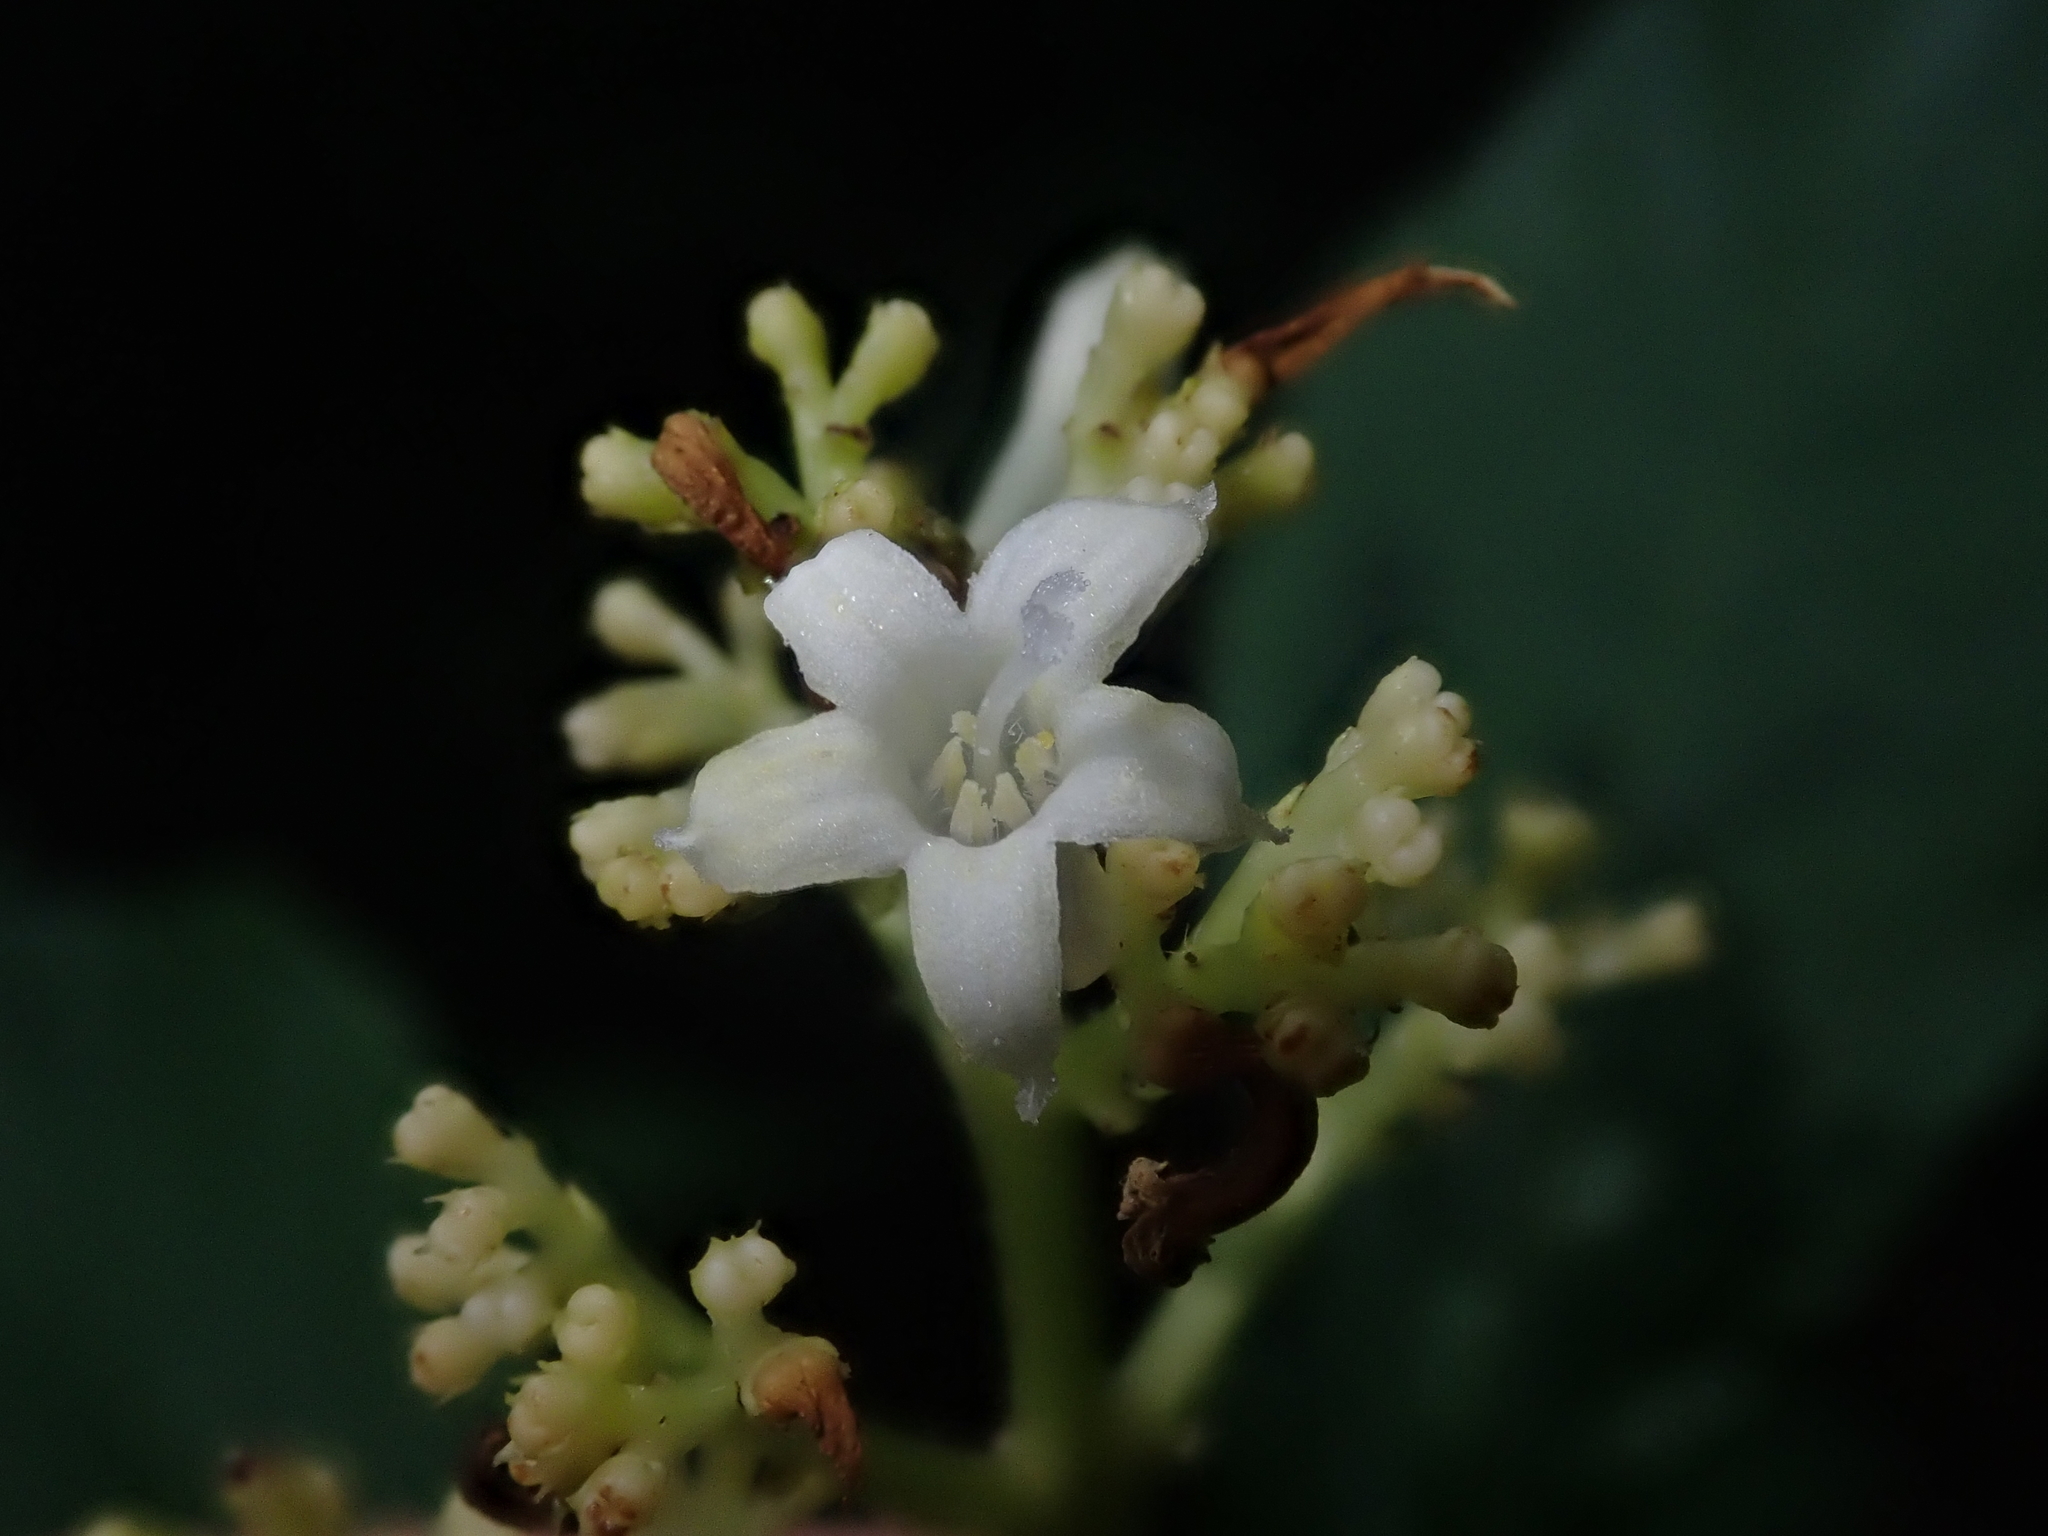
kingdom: Plantae
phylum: Tracheophyta
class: Magnoliopsida
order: Gentianales
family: Rubiaceae
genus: Palicourea
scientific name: Palicourea argentinensis
